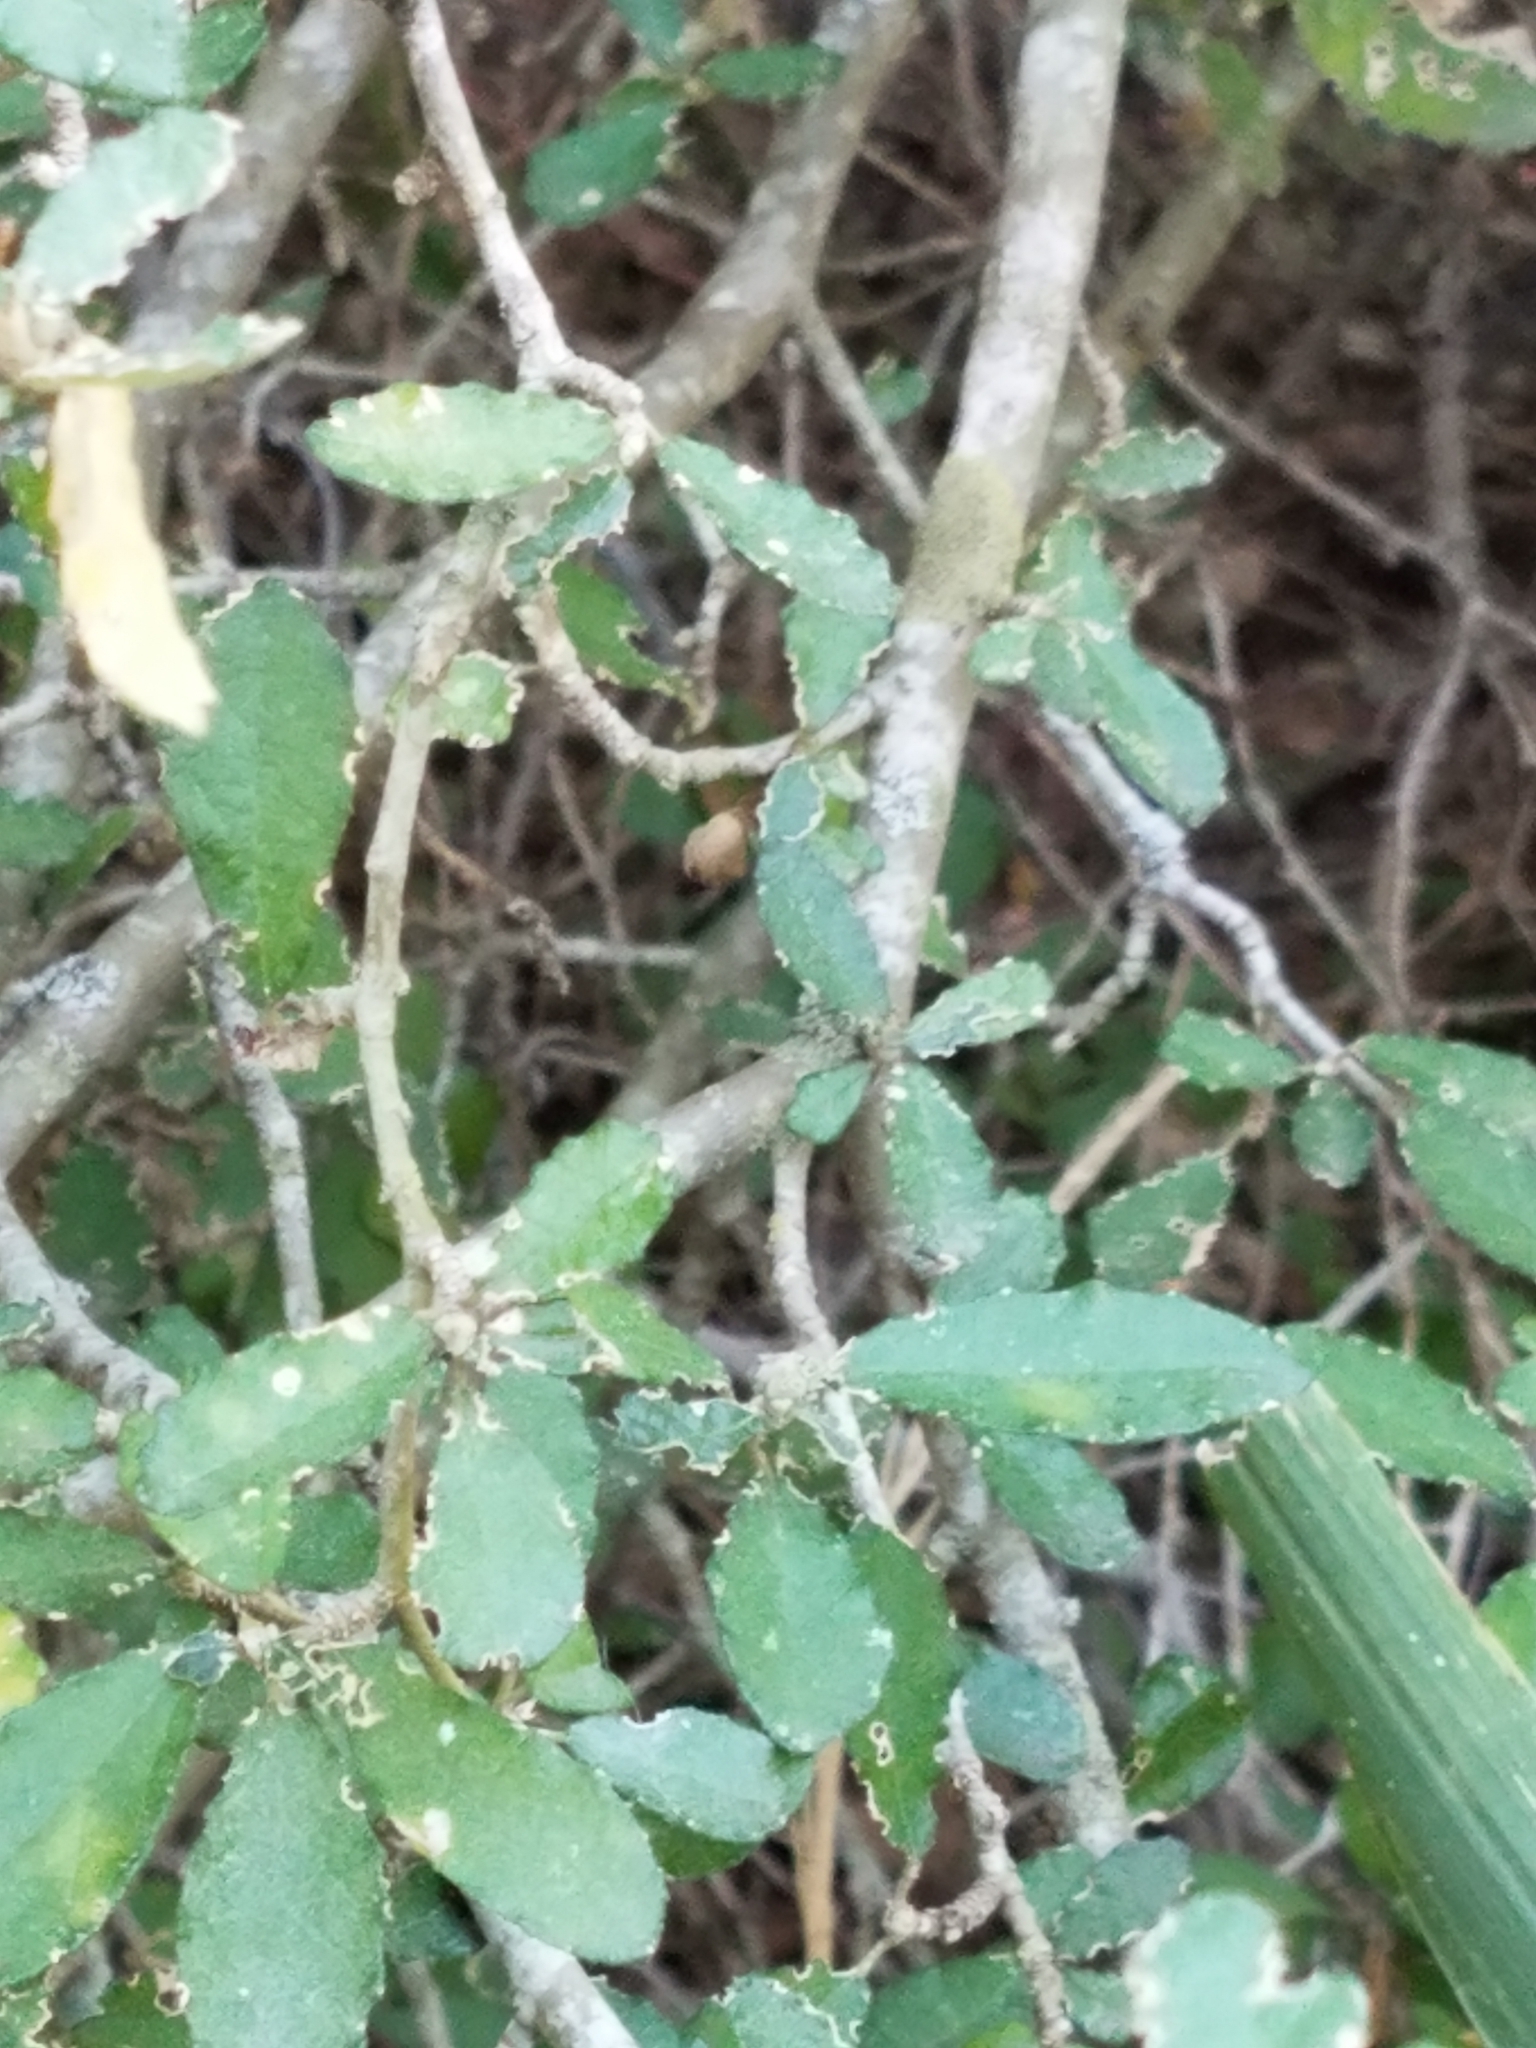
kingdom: Plantae
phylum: Tracheophyta
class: Magnoliopsida
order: Malpighiales
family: Euphorbiaceae
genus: Bernardia
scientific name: Bernardia myricifolia
